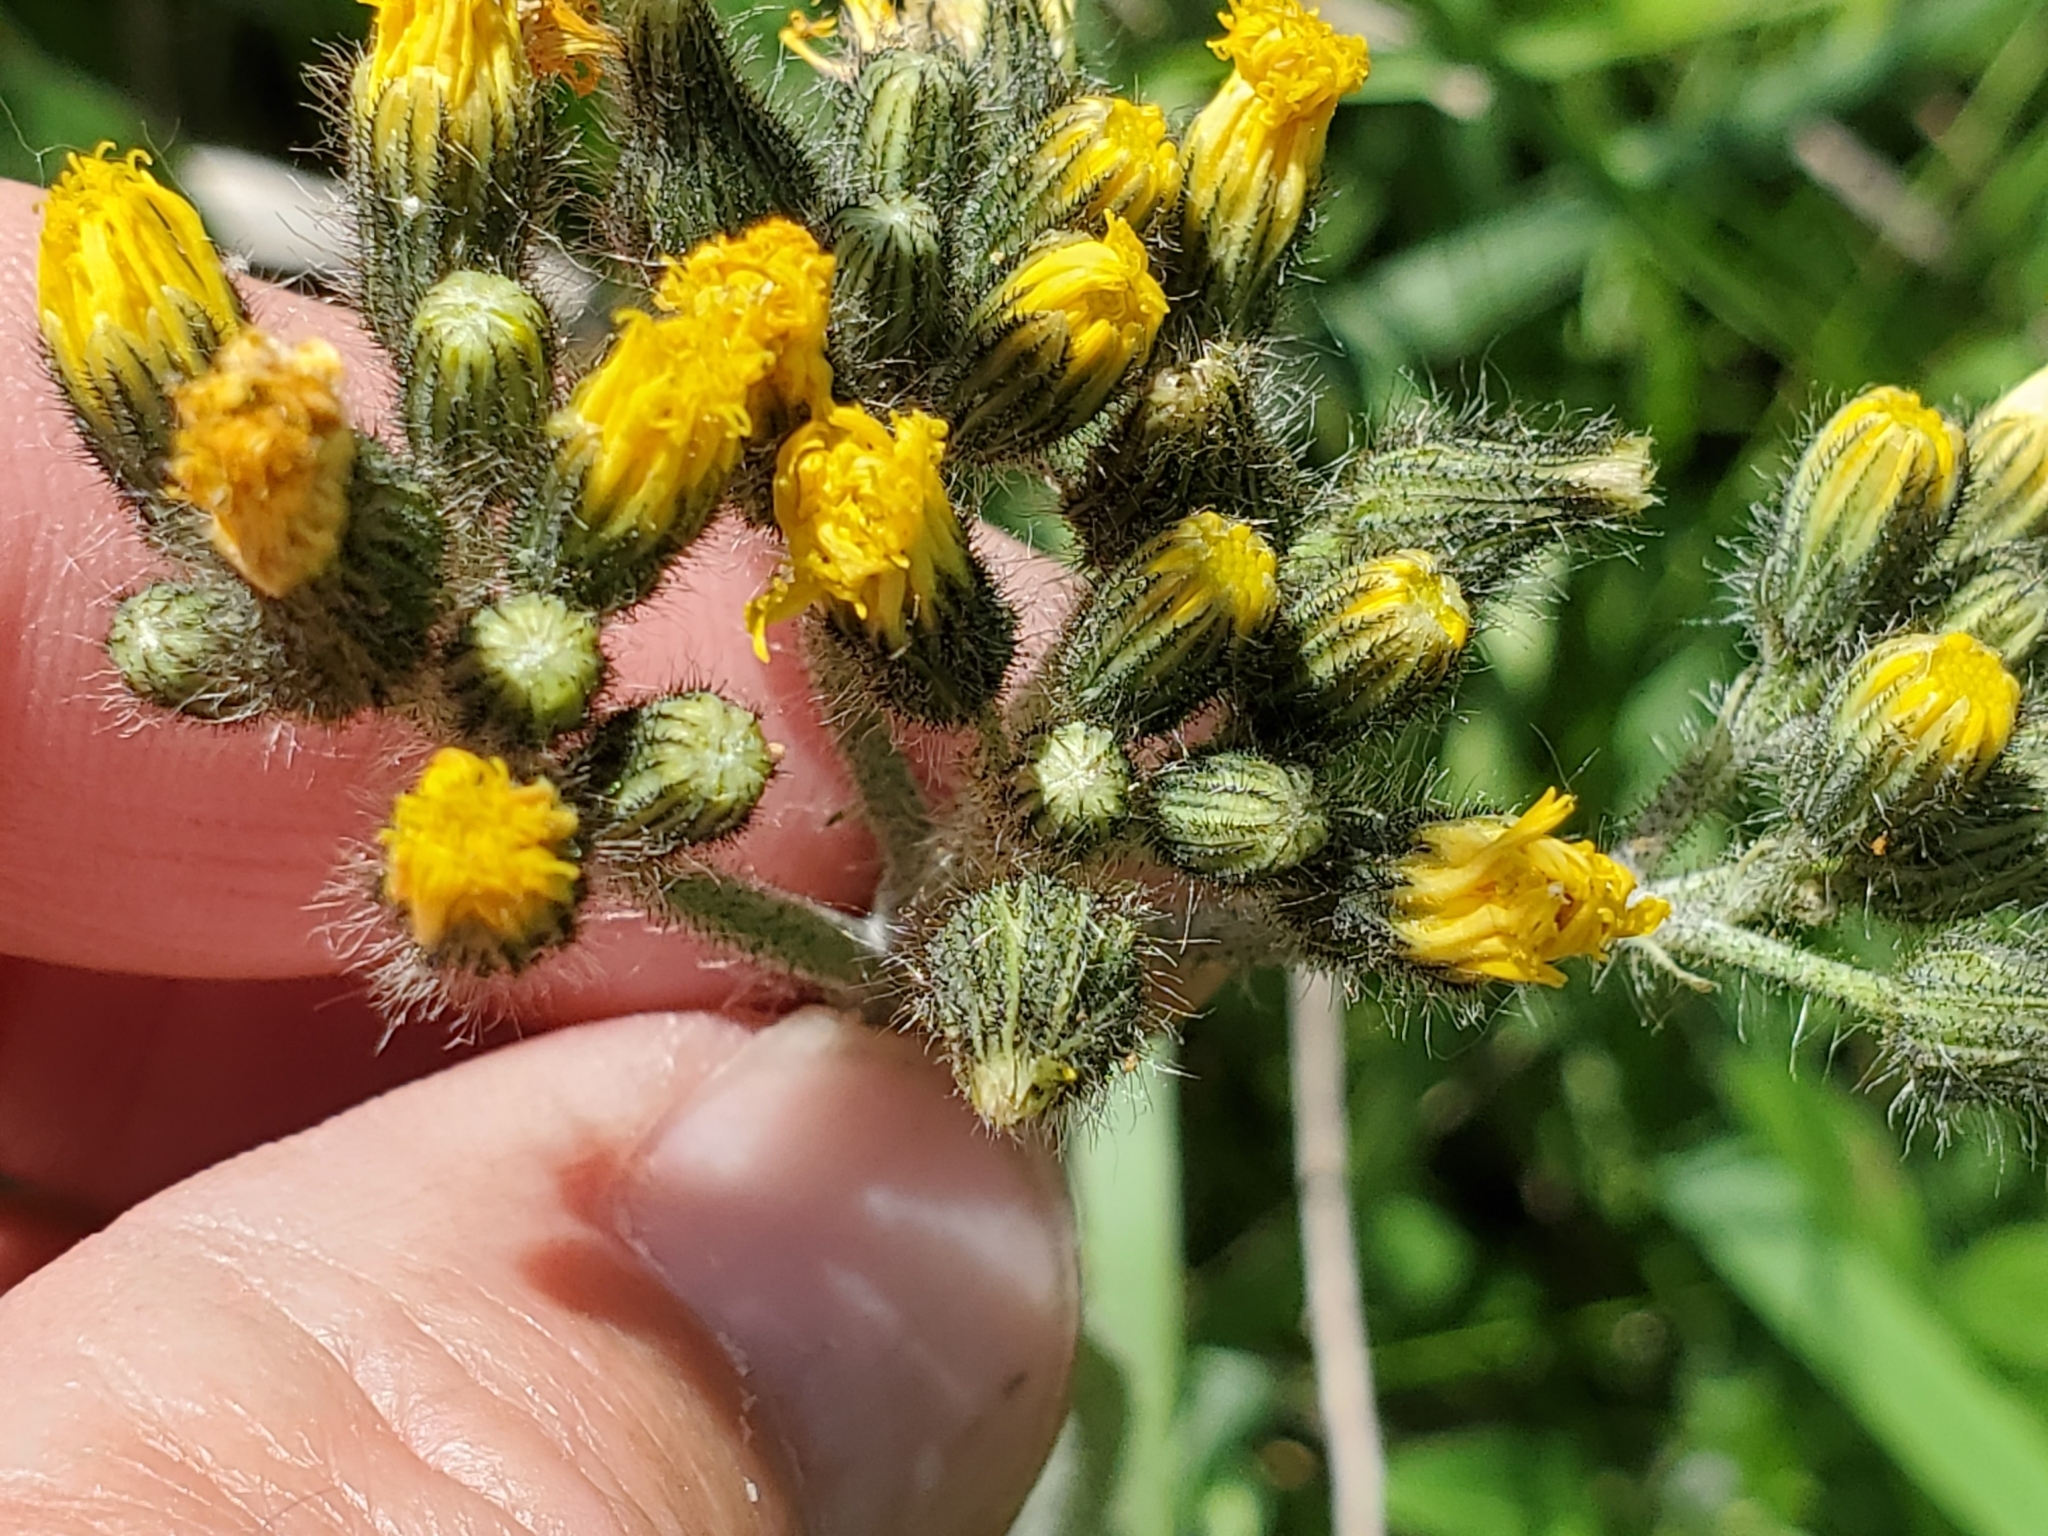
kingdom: Plantae
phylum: Tracheophyta
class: Magnoliopsida
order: Asterales
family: Asteraceae
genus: Pilosella
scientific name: Pilosella caespitosa
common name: Yellow fox-and-cubs
